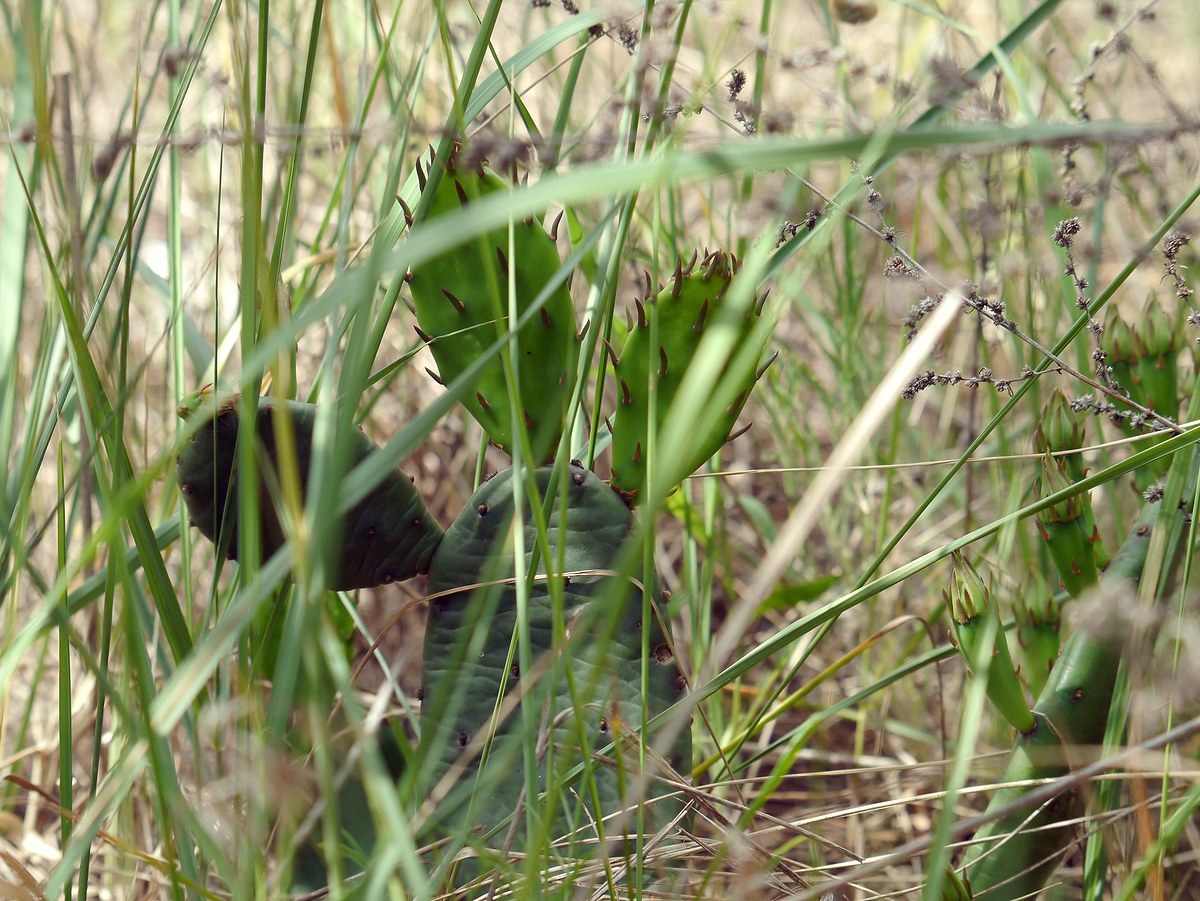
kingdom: Plantae
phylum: Tracheophyta
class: Magnoliopsida
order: Caryophyllales
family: Cactaceae
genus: Opuntia
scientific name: Opuntia humifusa
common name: Eastern prickly-pear
